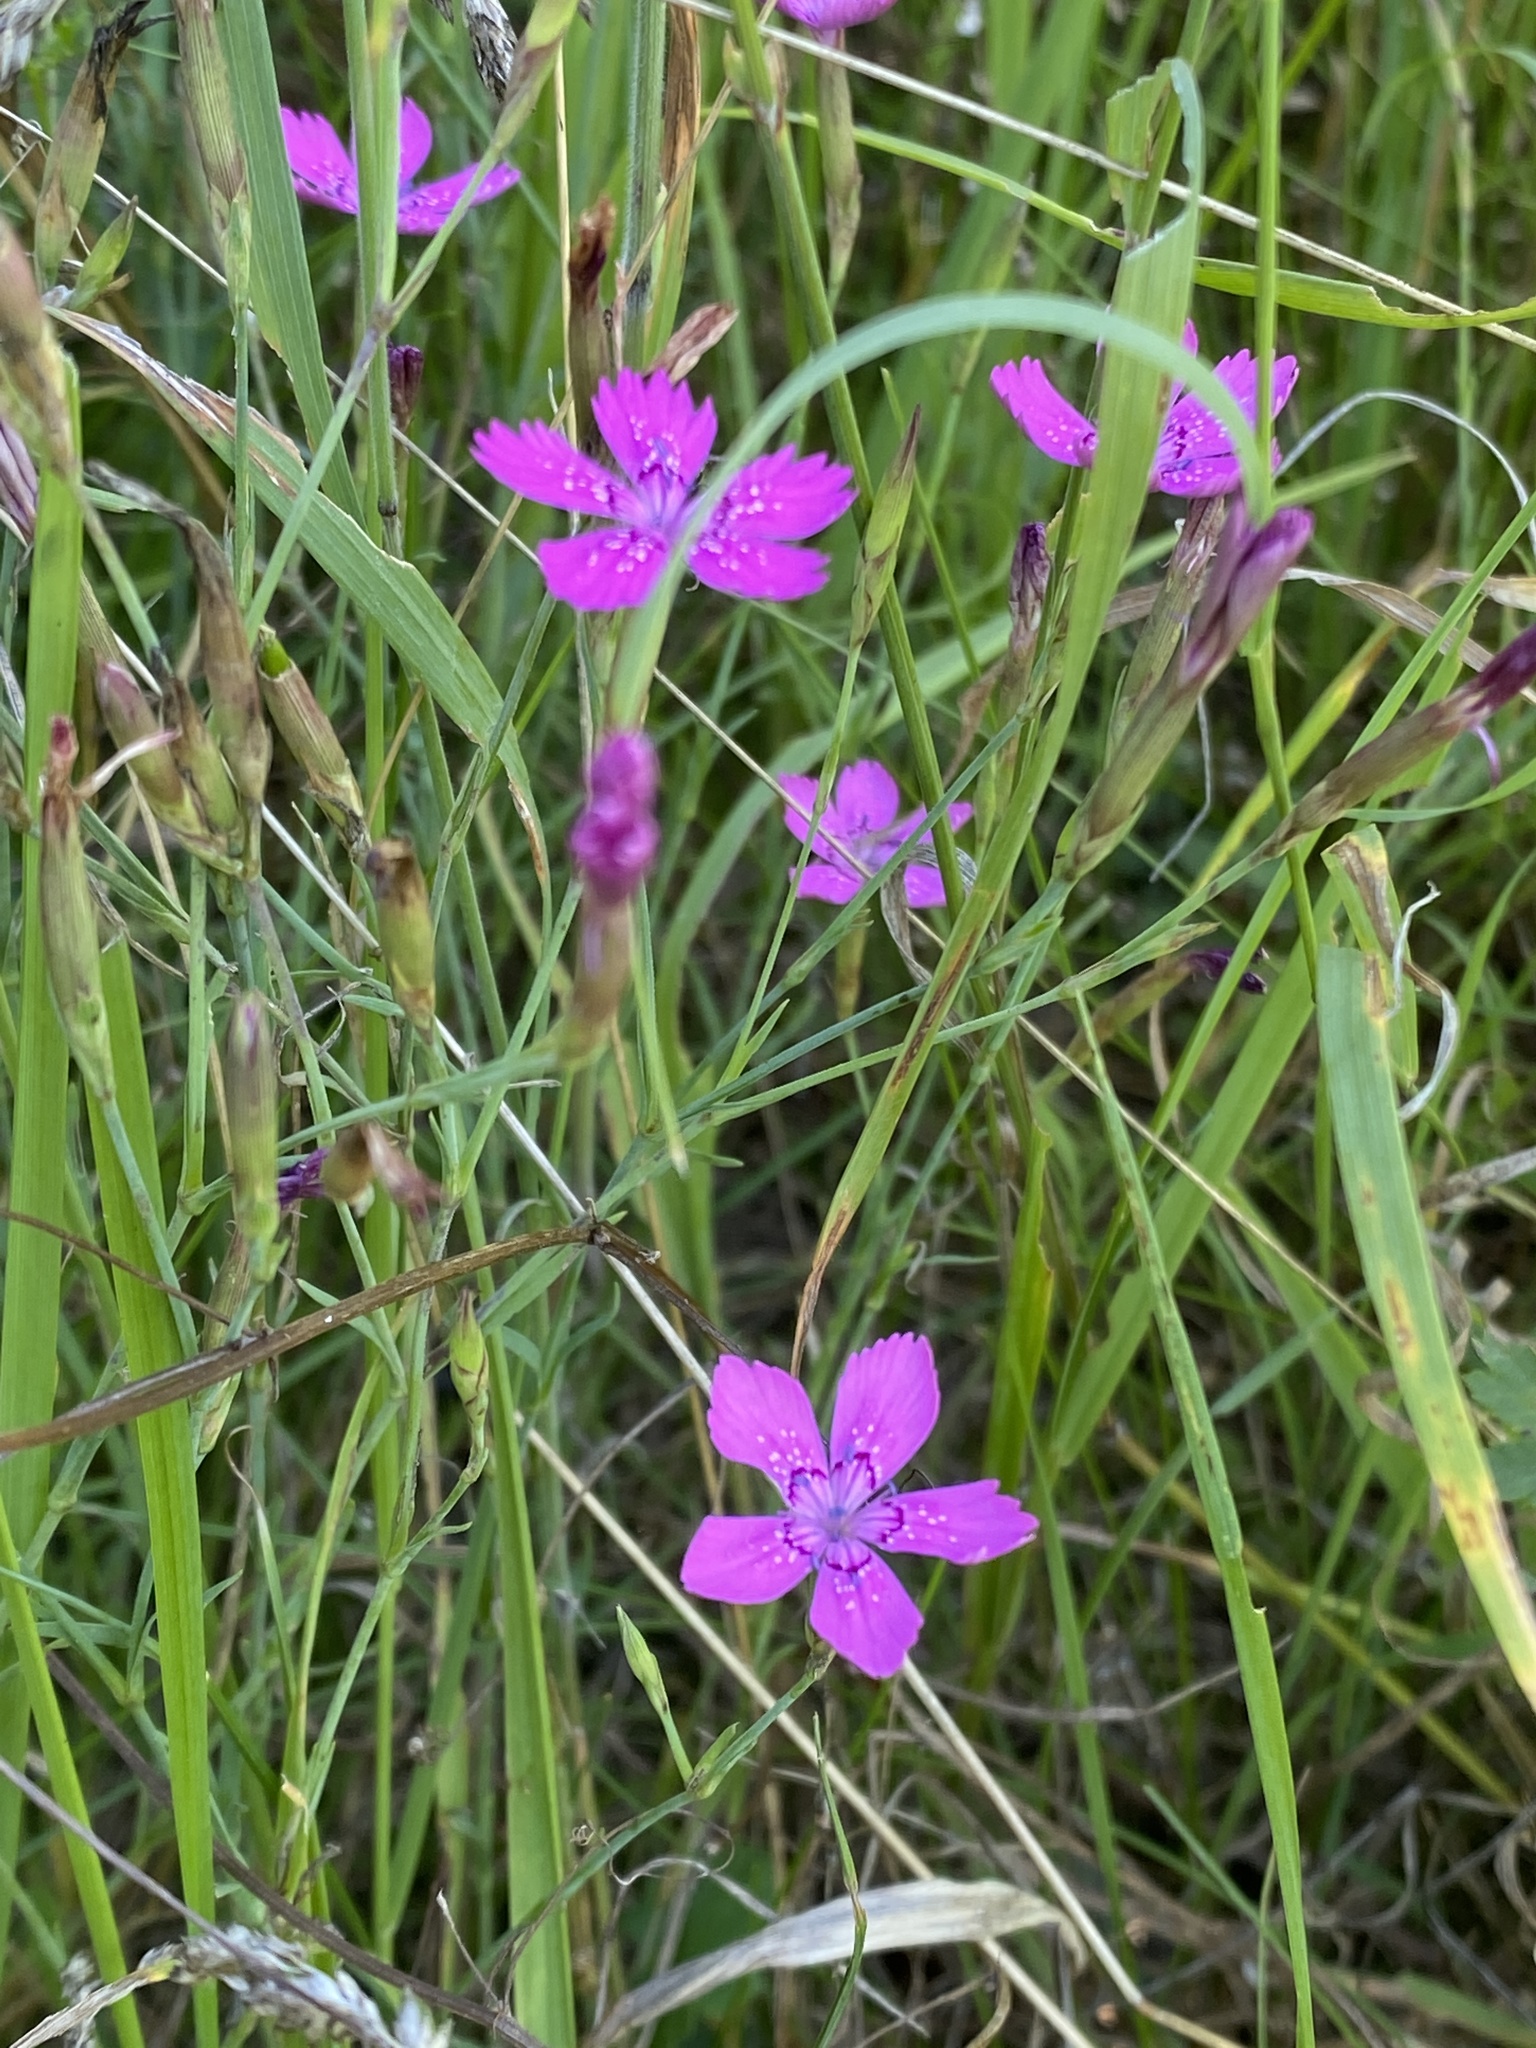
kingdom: Plantae
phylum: Tracheophyta
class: Magnoliopsida
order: Caryophyllales
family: Caryophyllaceae
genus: Dianthus
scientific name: Dianthus deltoides
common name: Maiden pink
